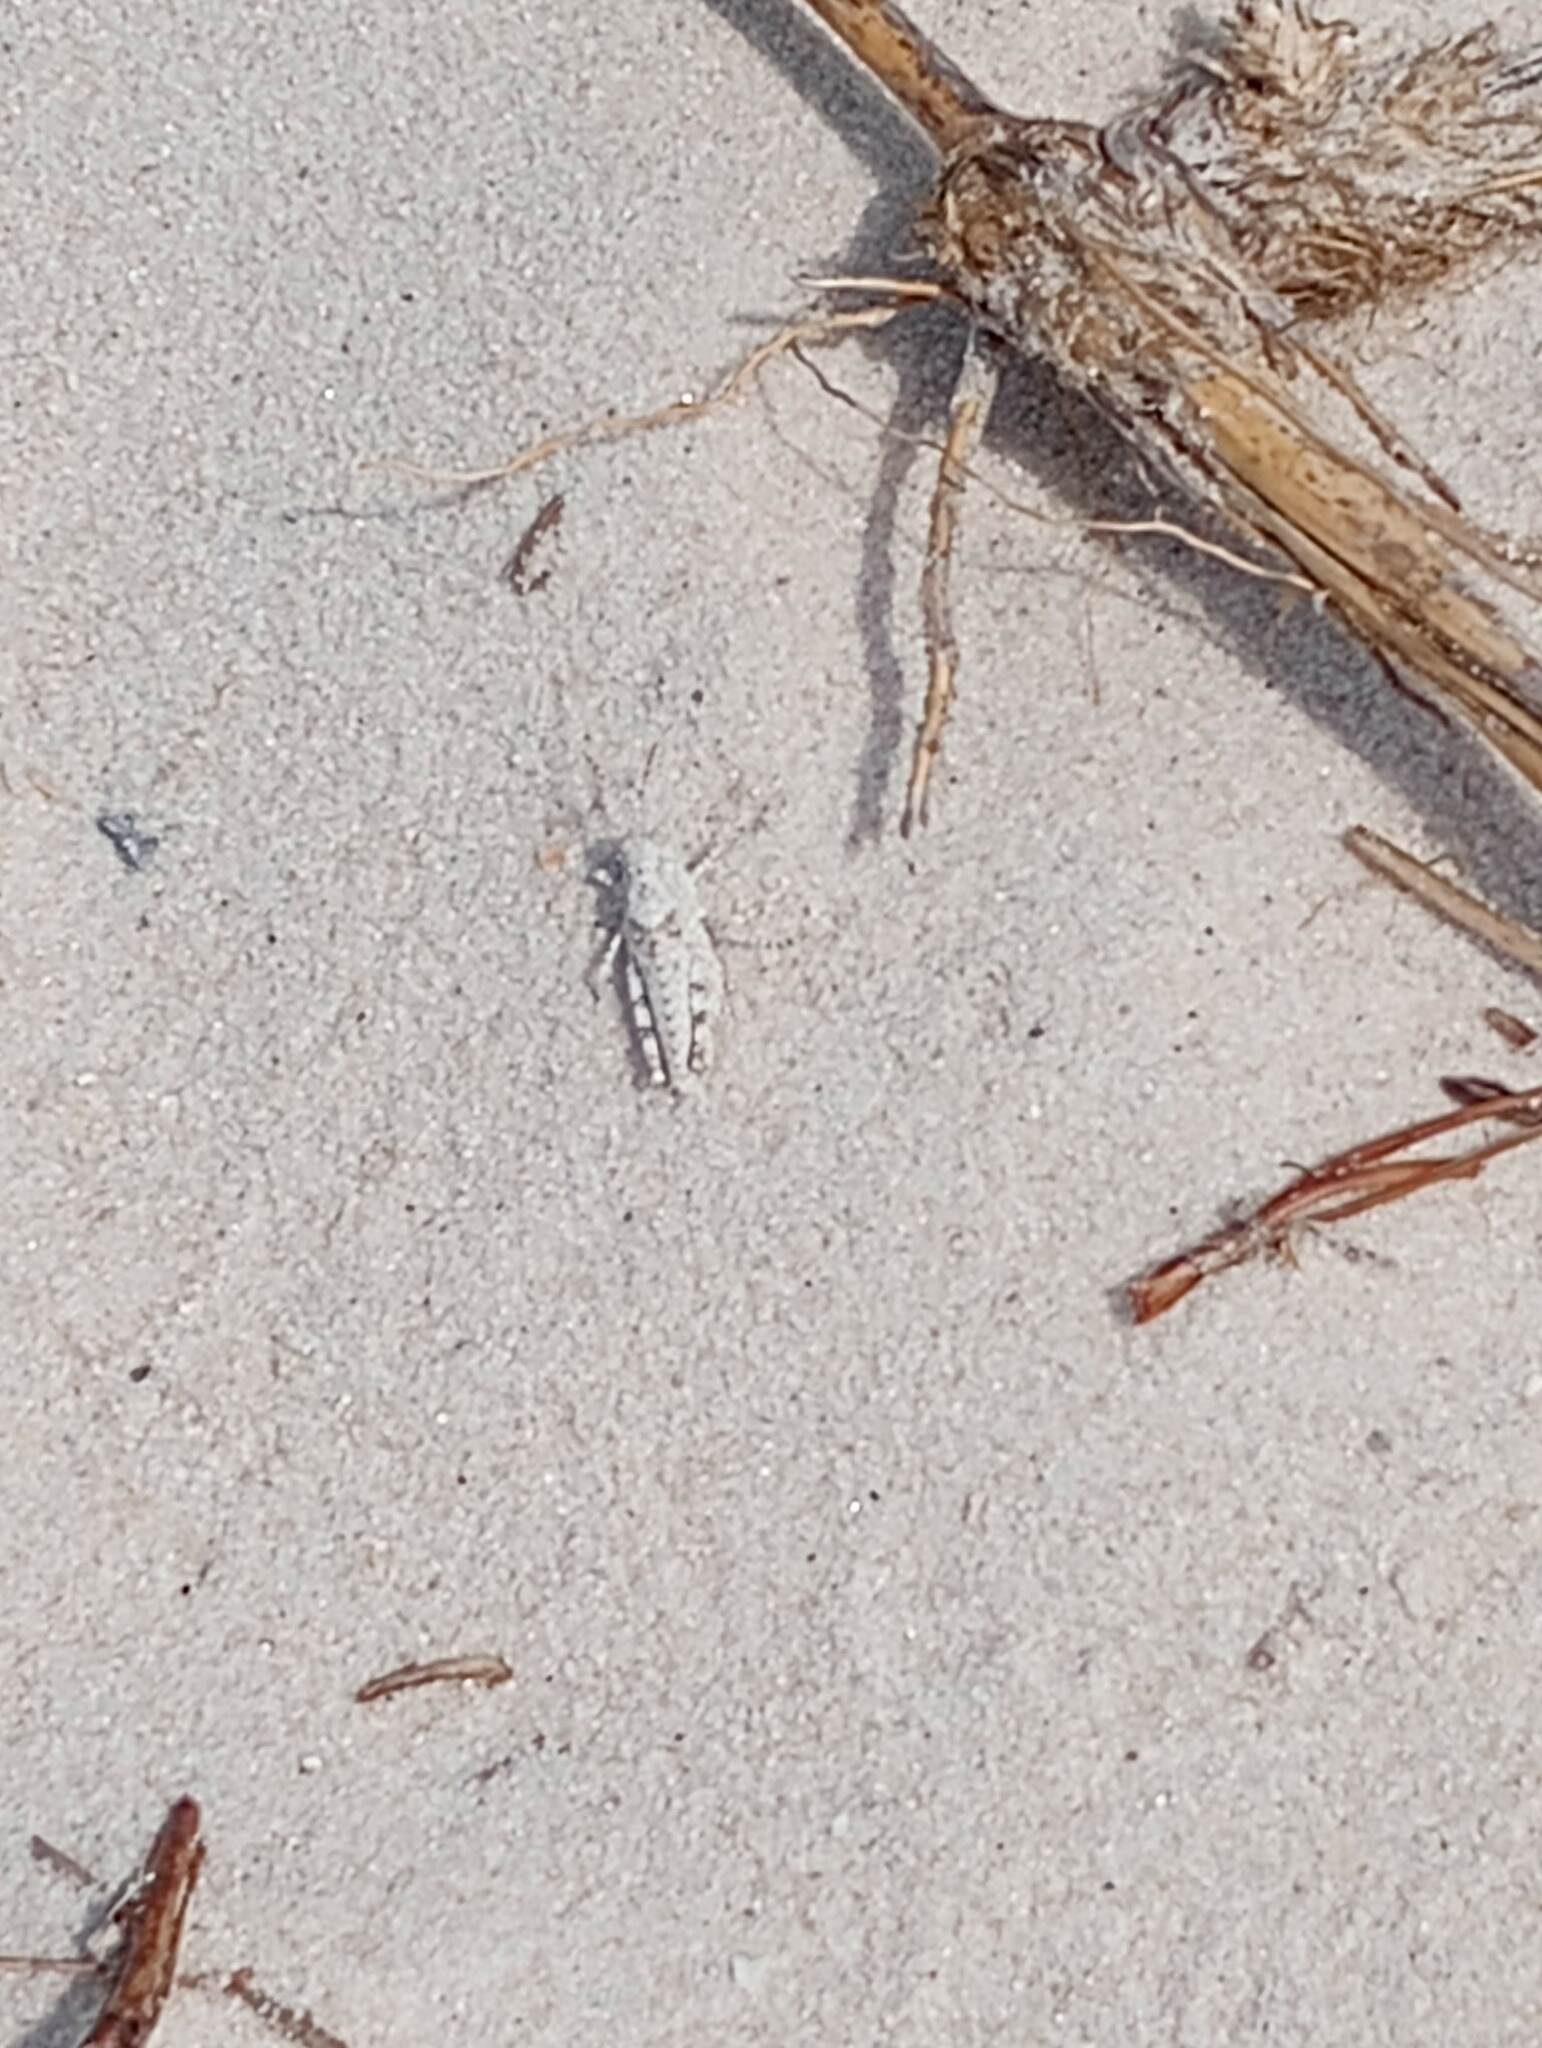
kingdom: Animalia
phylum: Arthropoda
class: Insecta
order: Orthoptera
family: Acrididae
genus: Trimerotropis
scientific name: Trimerotropis maritima
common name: Seaside locust
